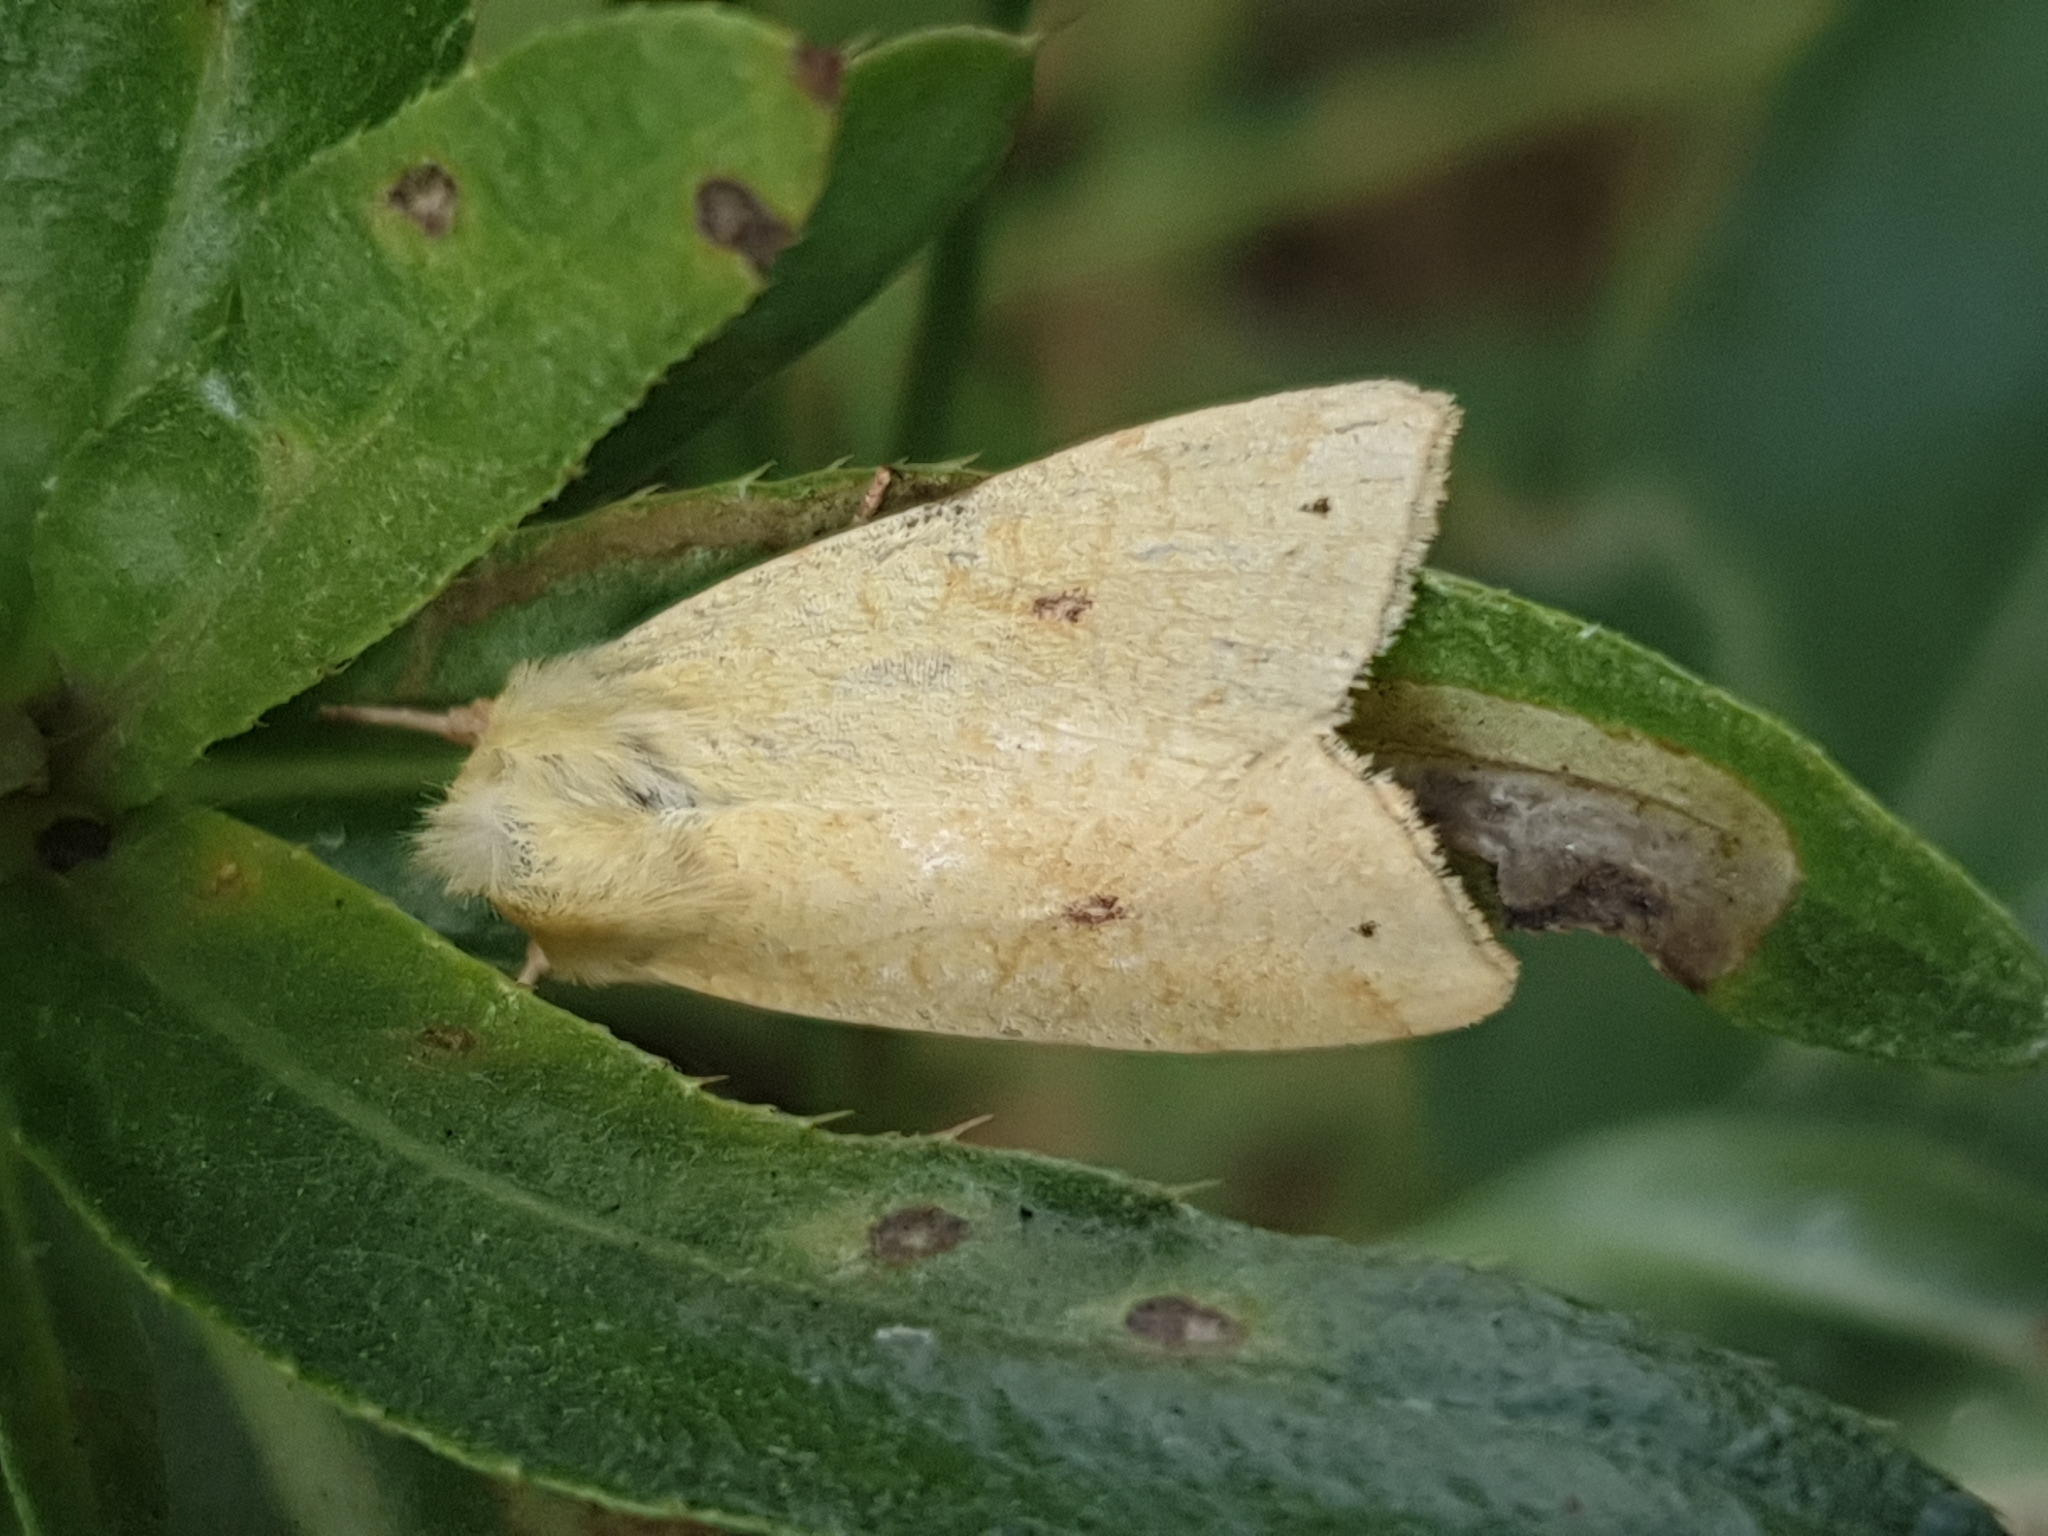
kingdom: Animalia
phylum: Arthropoda
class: Insecta
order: Lepidoptera
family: Noctuidae
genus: Xanthia
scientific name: Xanthia icteritia
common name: The sallow
